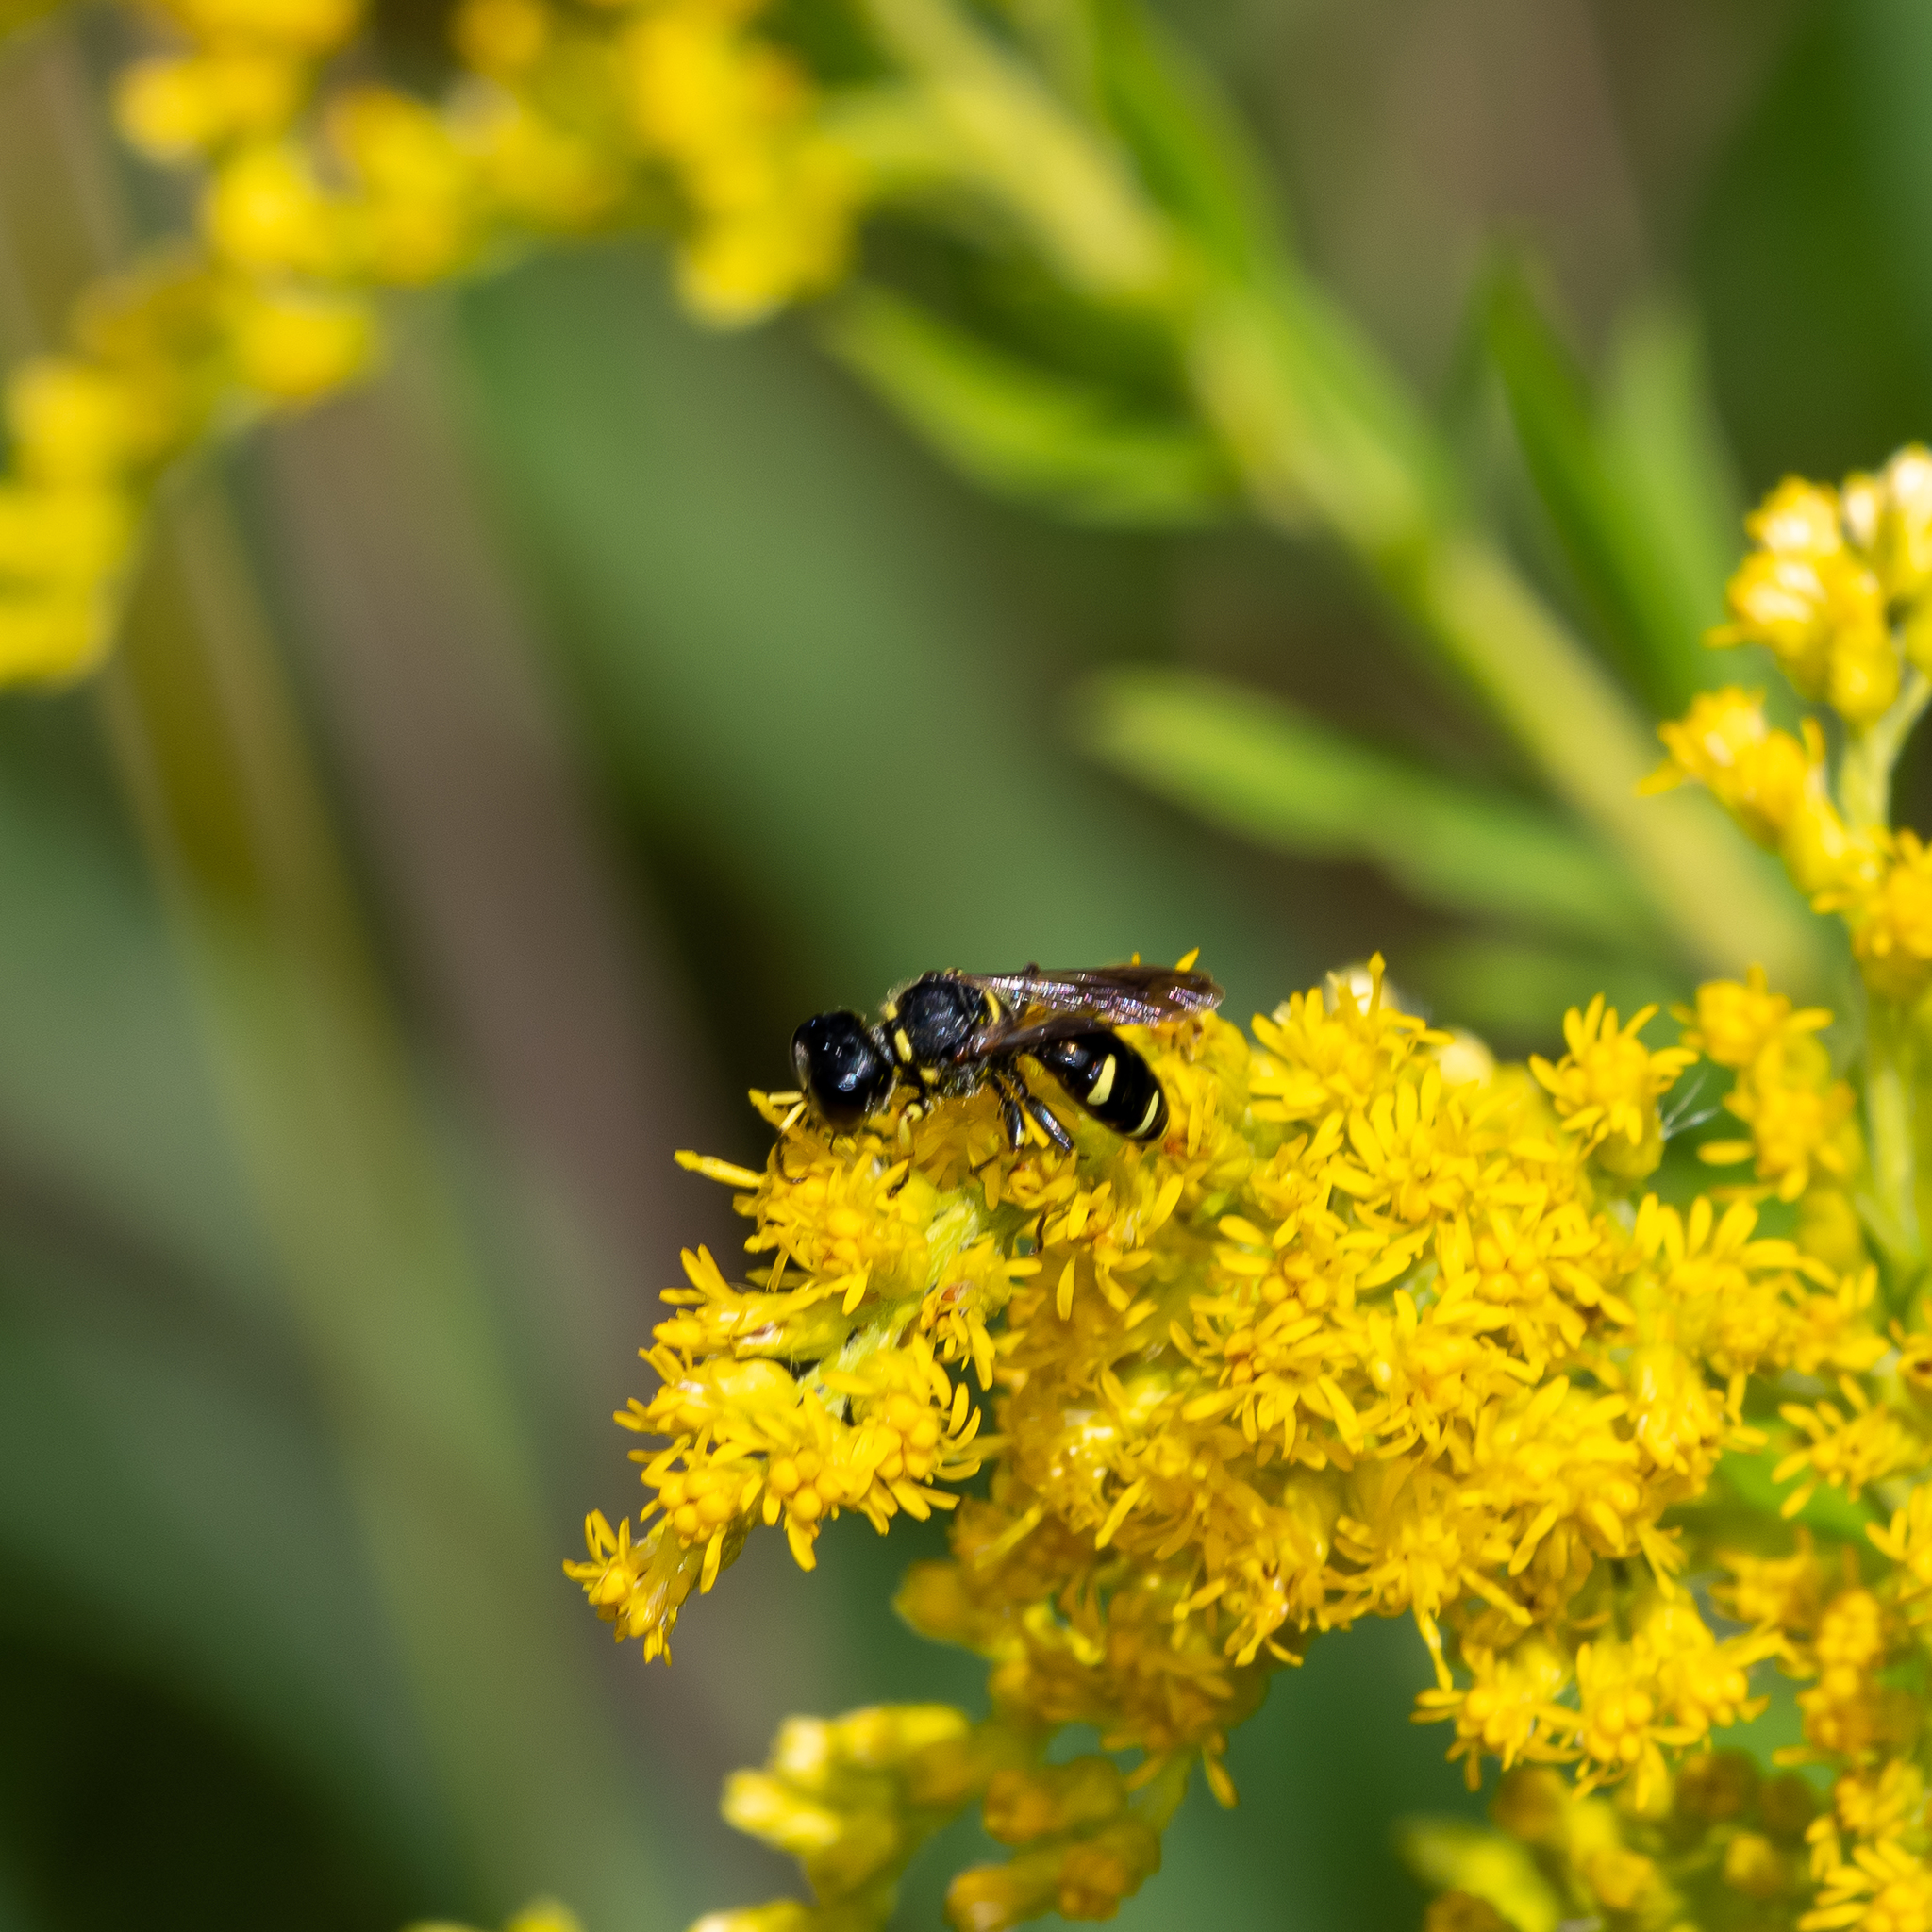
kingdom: Animalia
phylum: Arthropoda
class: Insecta
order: Hymenoptera
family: Crabronidae
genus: Ectemnius
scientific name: Ectemnius continuus
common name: Common ectemnius
